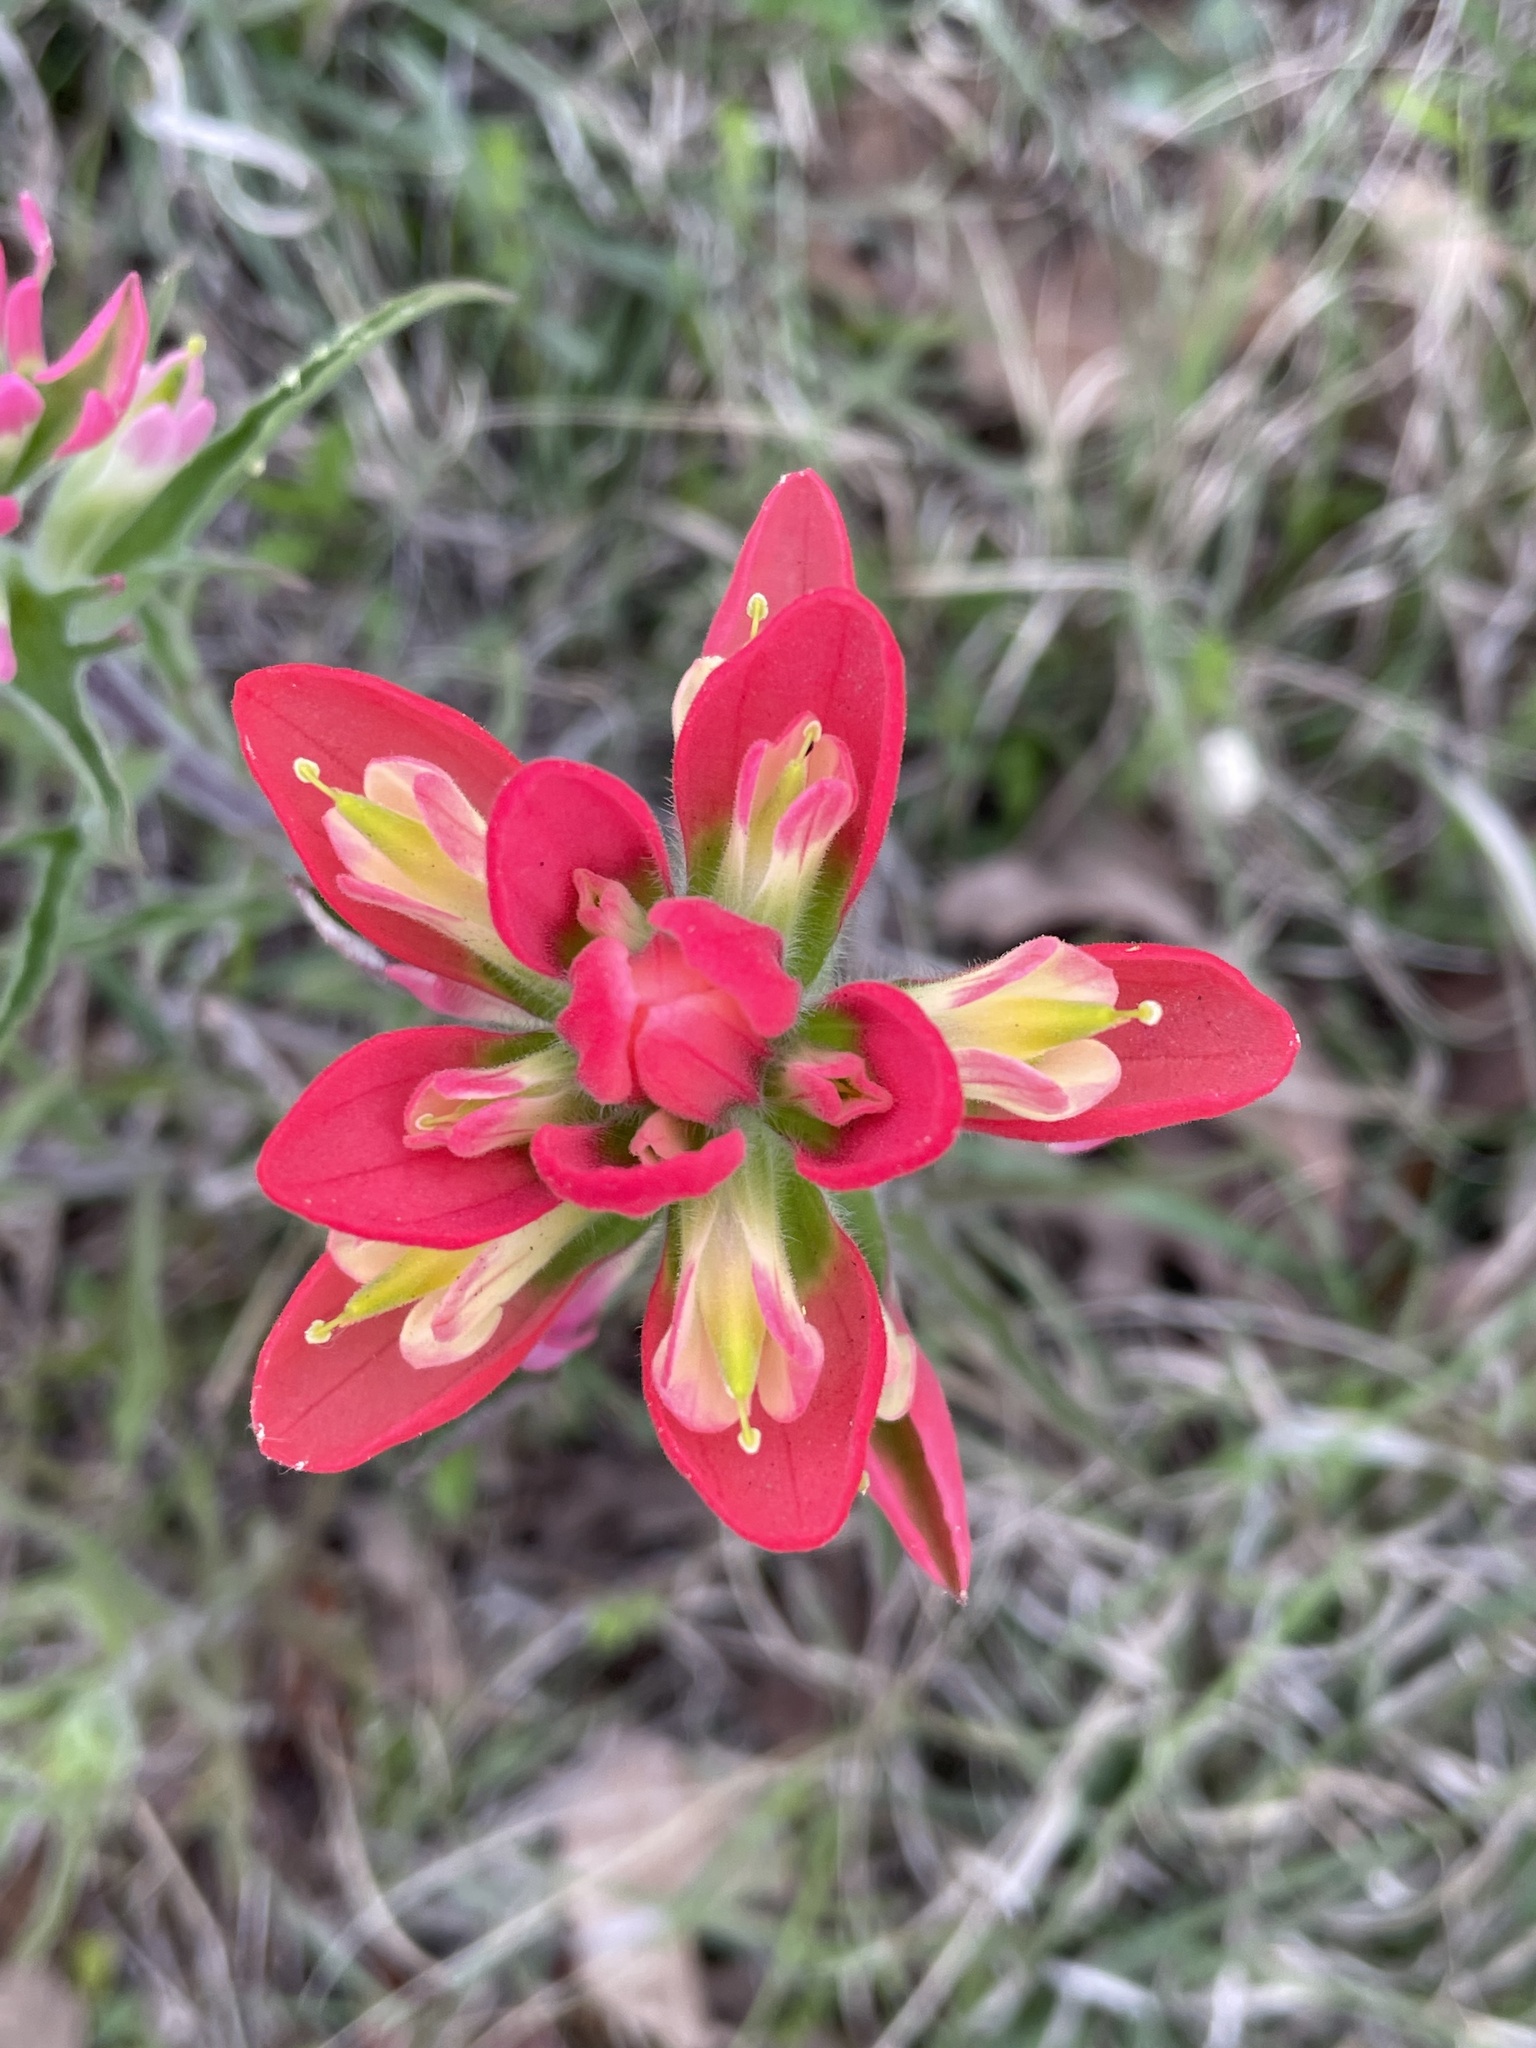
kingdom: Plantae
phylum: Tracheophyta
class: Magnoliopsida
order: Lamiales
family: Orobanchaceae
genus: Castilleja
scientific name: Castilleja indivisa
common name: Texas paintbrush
